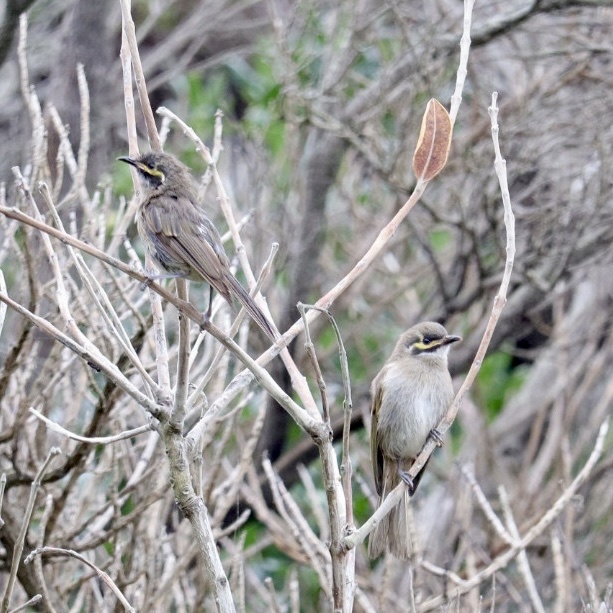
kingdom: Animalia
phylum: Chordata
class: Aves
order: Passeriformes
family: Meliphagidae
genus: Caligavis
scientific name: Caligavis chrysops
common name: Yellow-faced honeyeater
